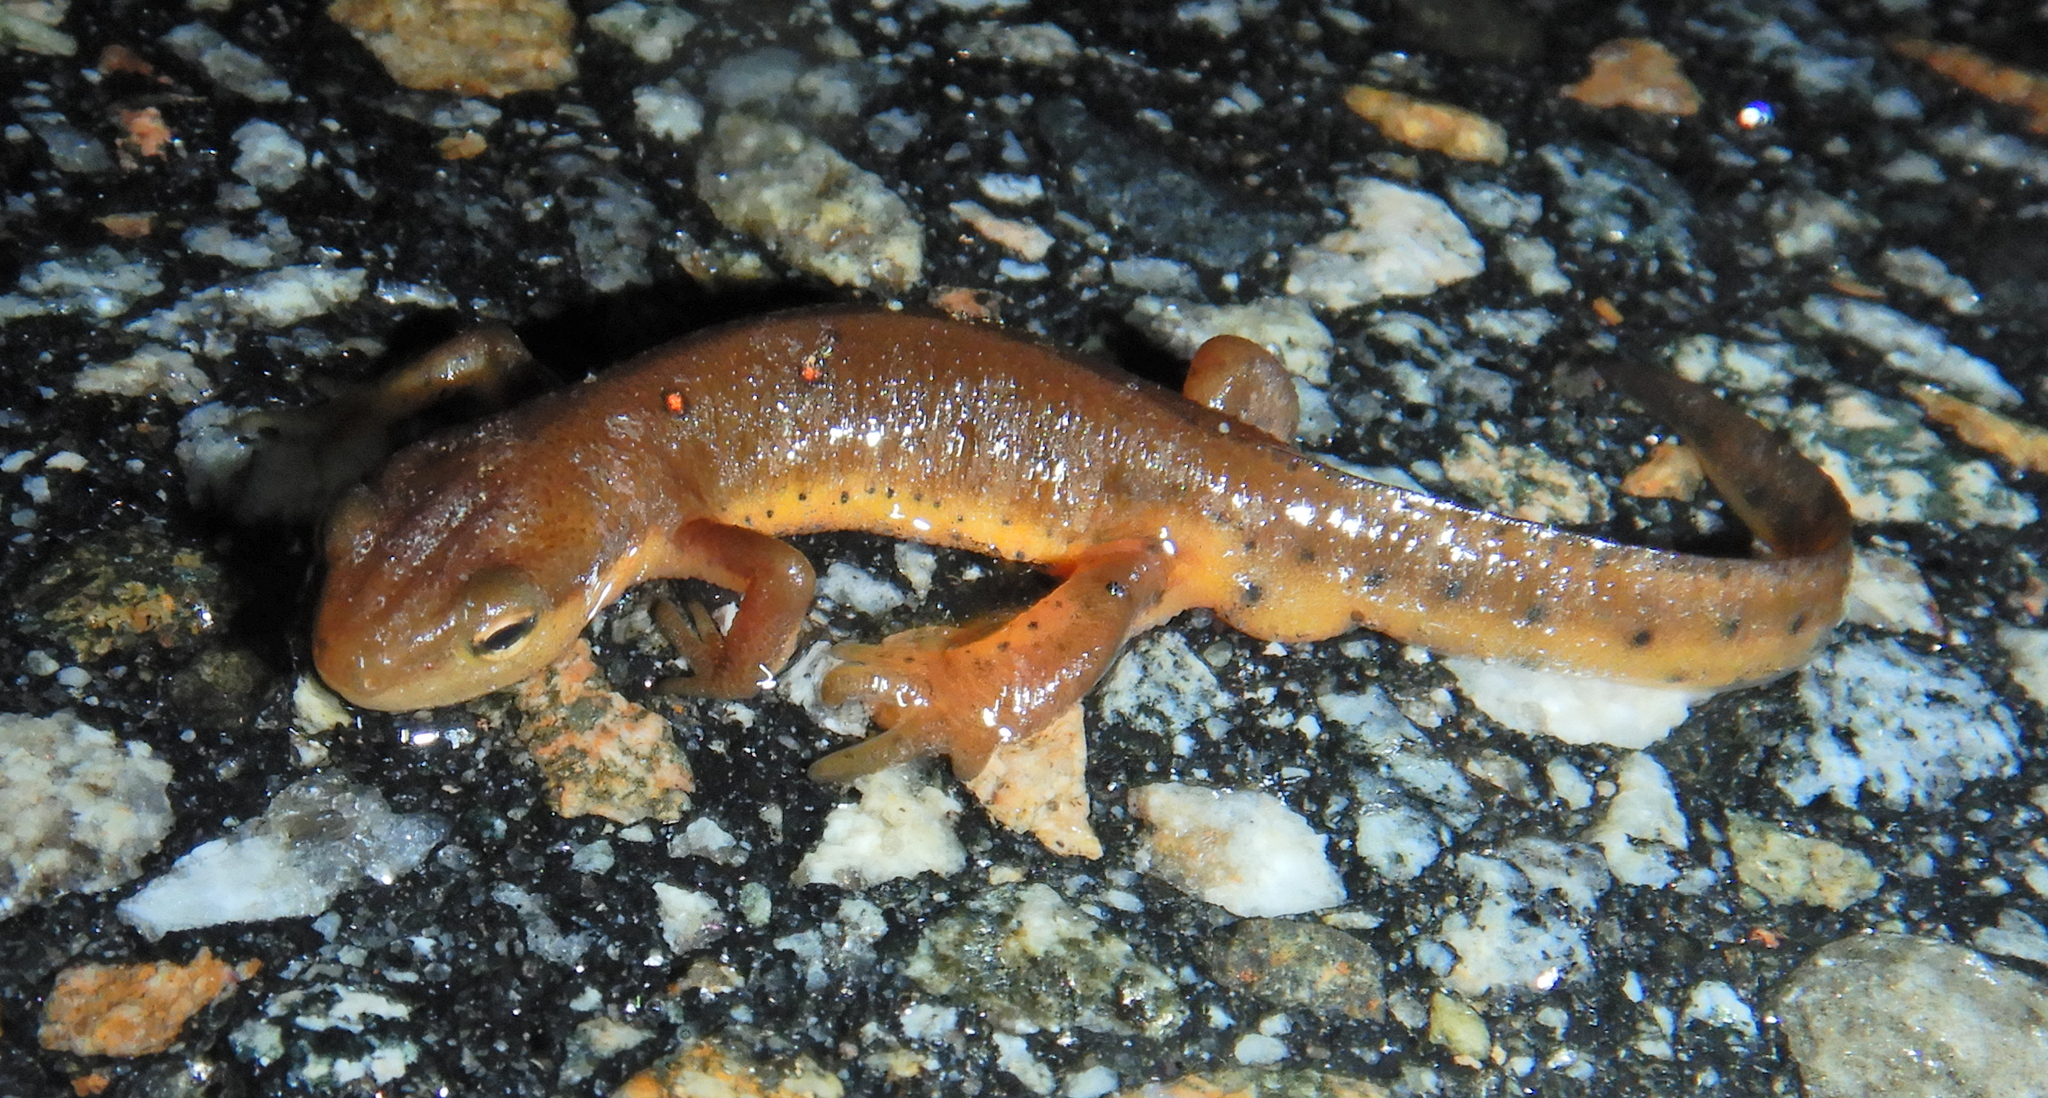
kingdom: Animalia
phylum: Chordata
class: Amphibia
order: Caudata
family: Salamandridae
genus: Notophthalmus
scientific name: Notophthalmus viridescens
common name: Eastern newt
